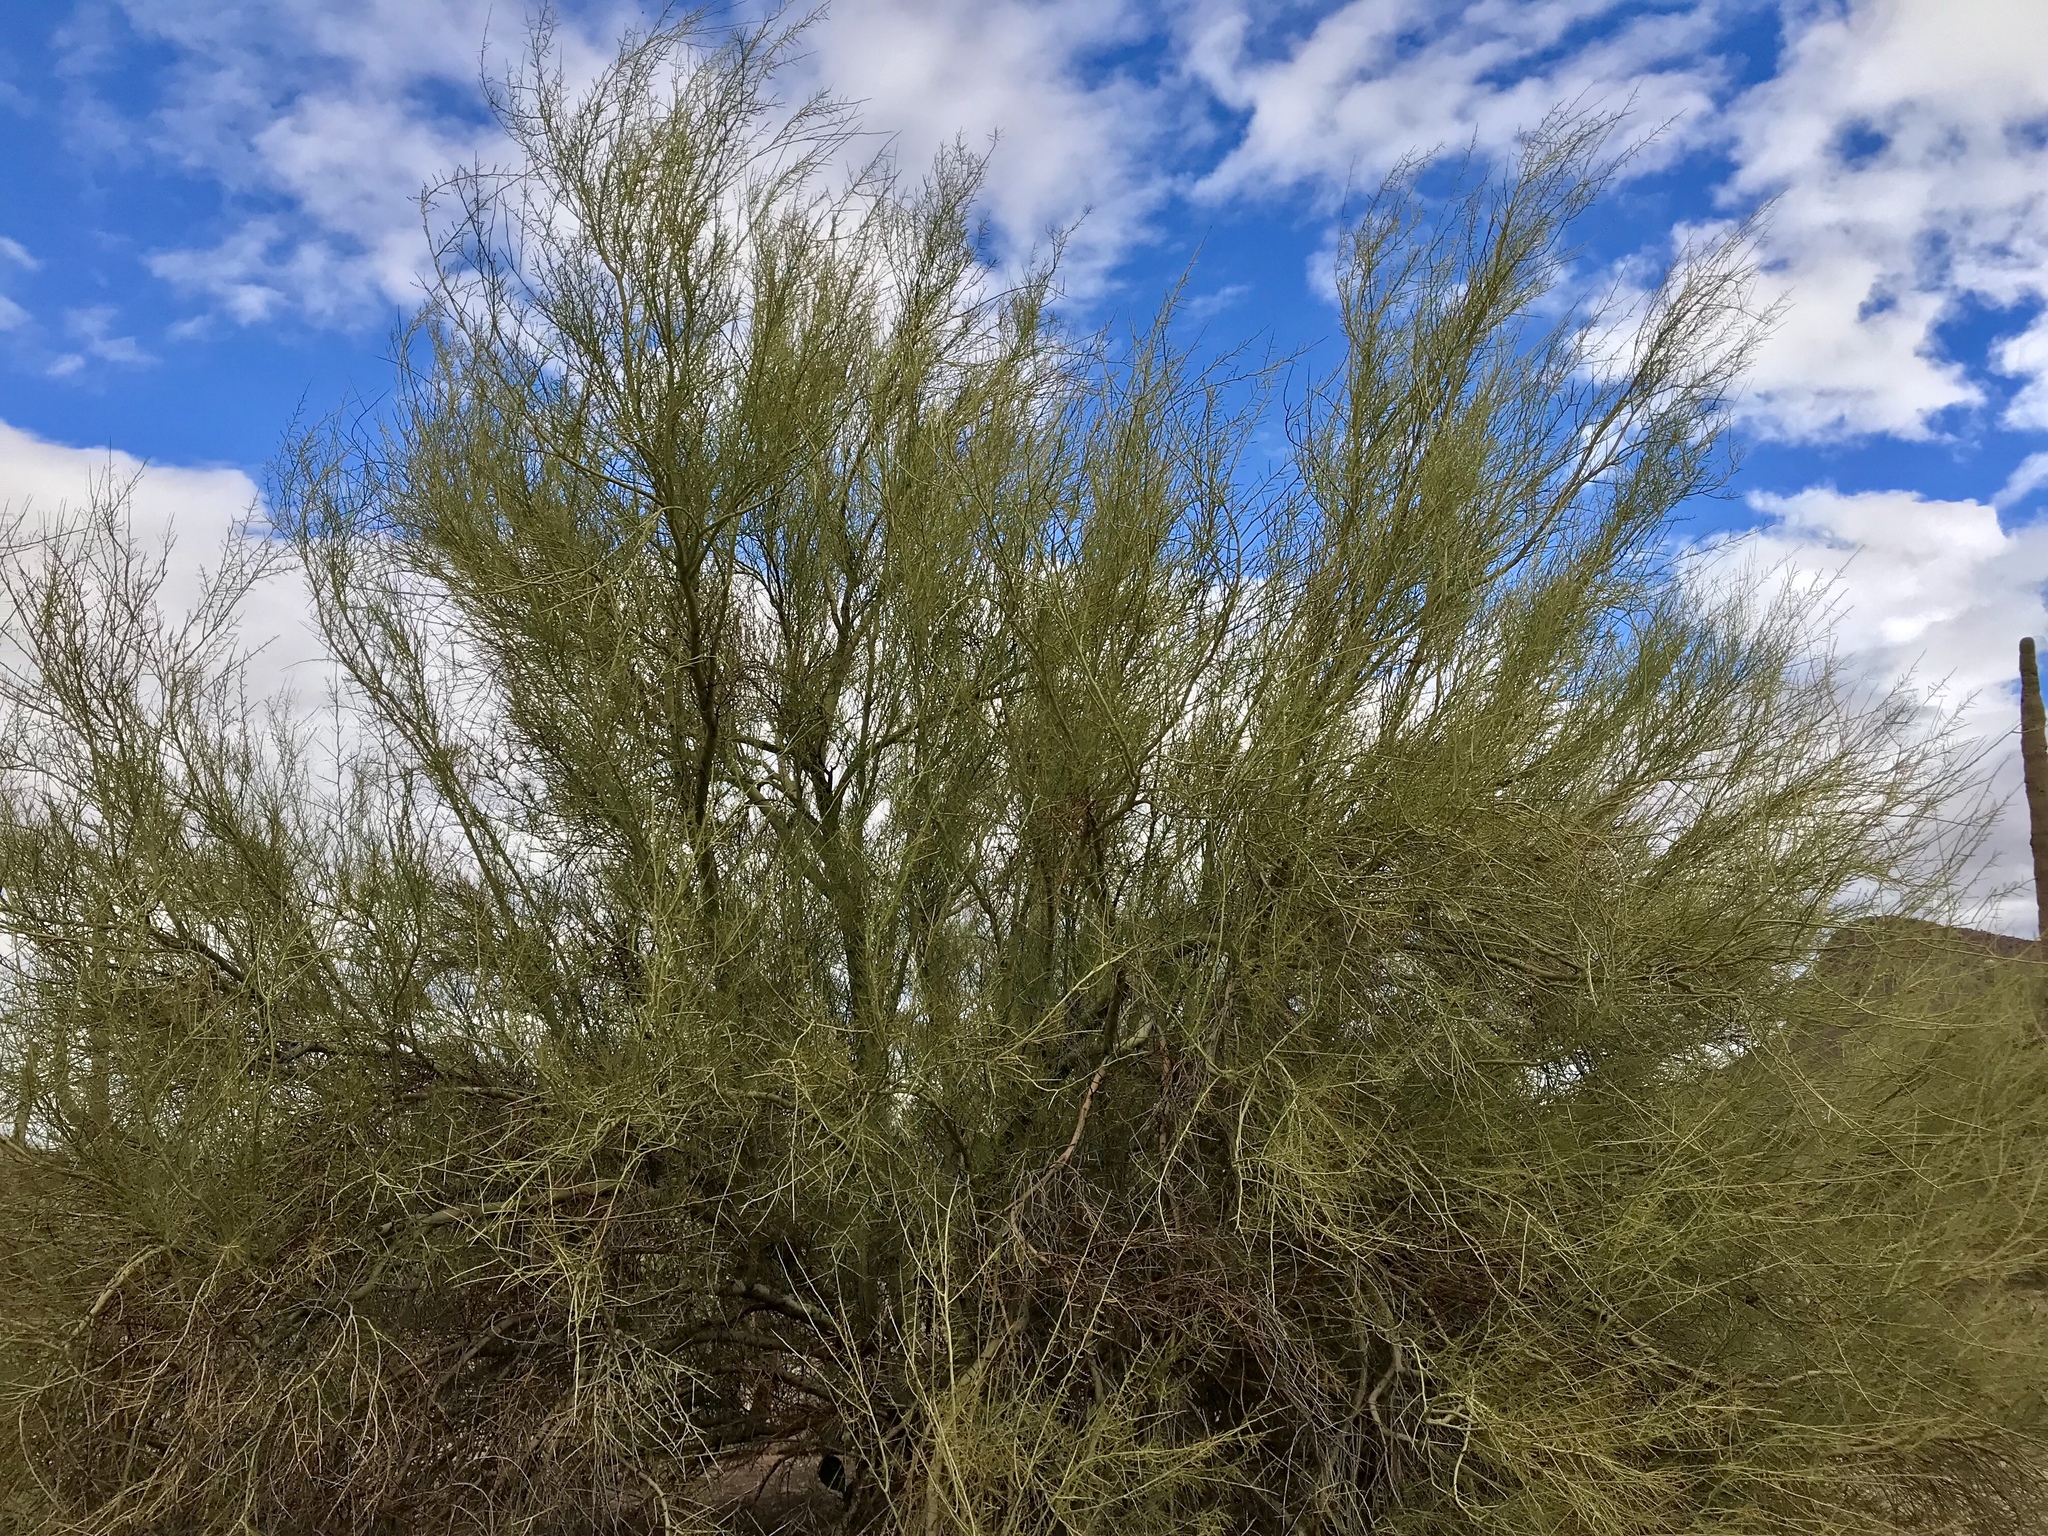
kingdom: Plantae
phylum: Tracheophyta
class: Magnoliopsida
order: Fabales
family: Fabaceae
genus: Parkinsonia
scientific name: Parkinsonia microphylla
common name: Yellow paloverde
